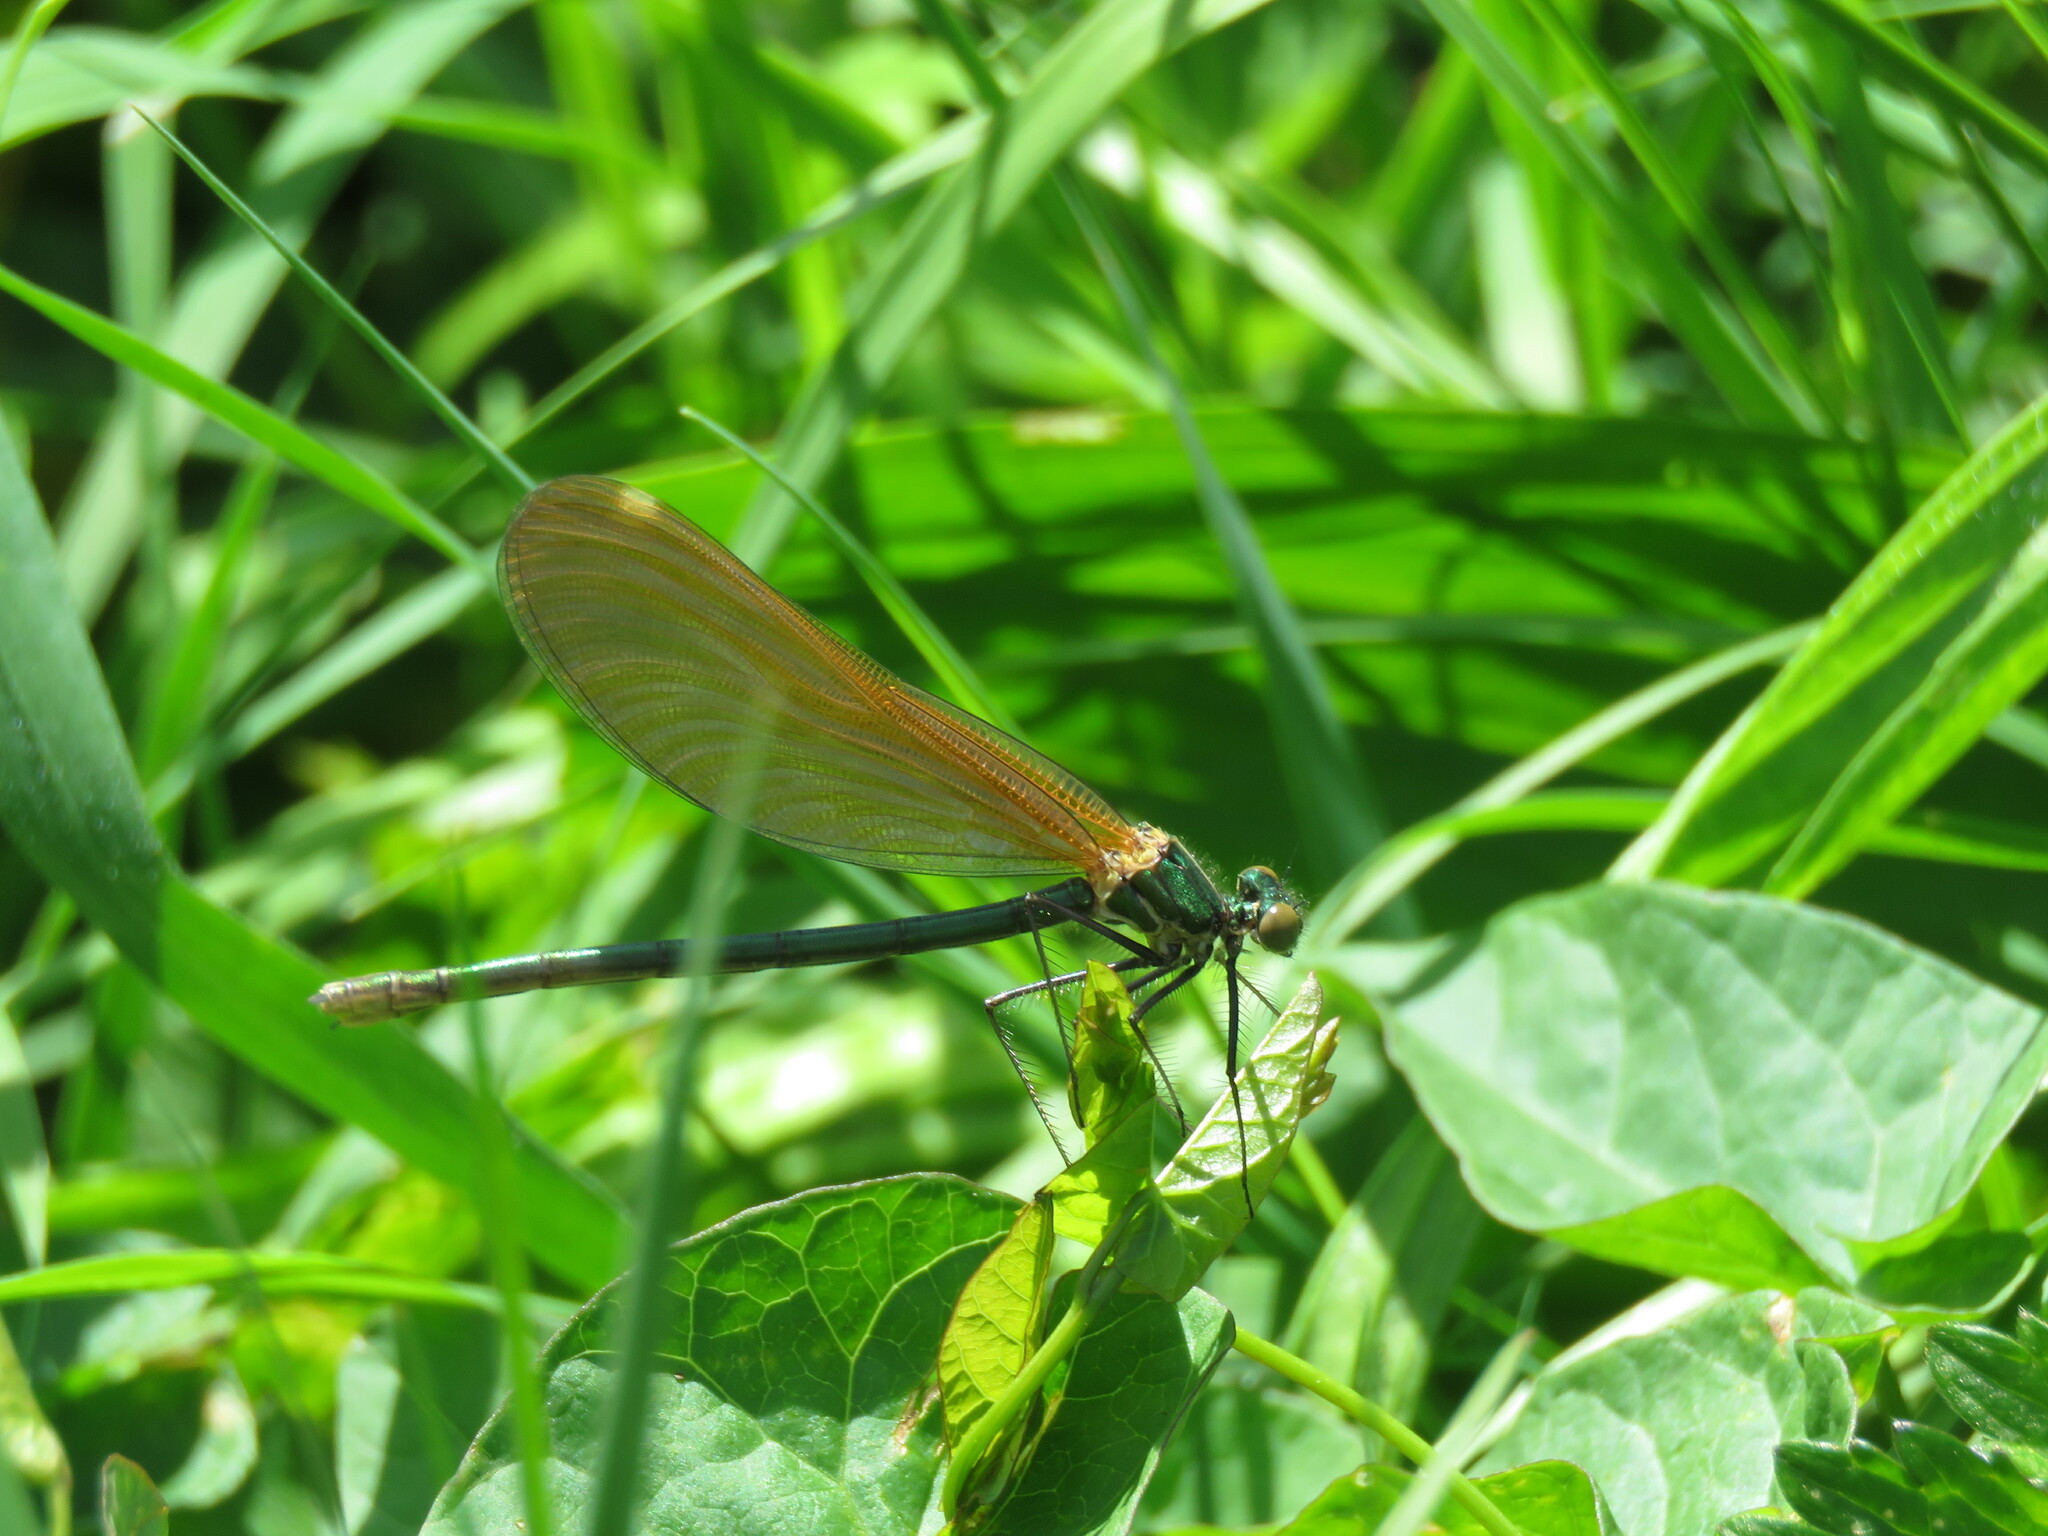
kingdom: Animalia
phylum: Arthropoda
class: Insecta
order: Odonata
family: Calopterygidae
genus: Calopteryx
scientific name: Calopteryx virgo
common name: Beautiful demoiselle
